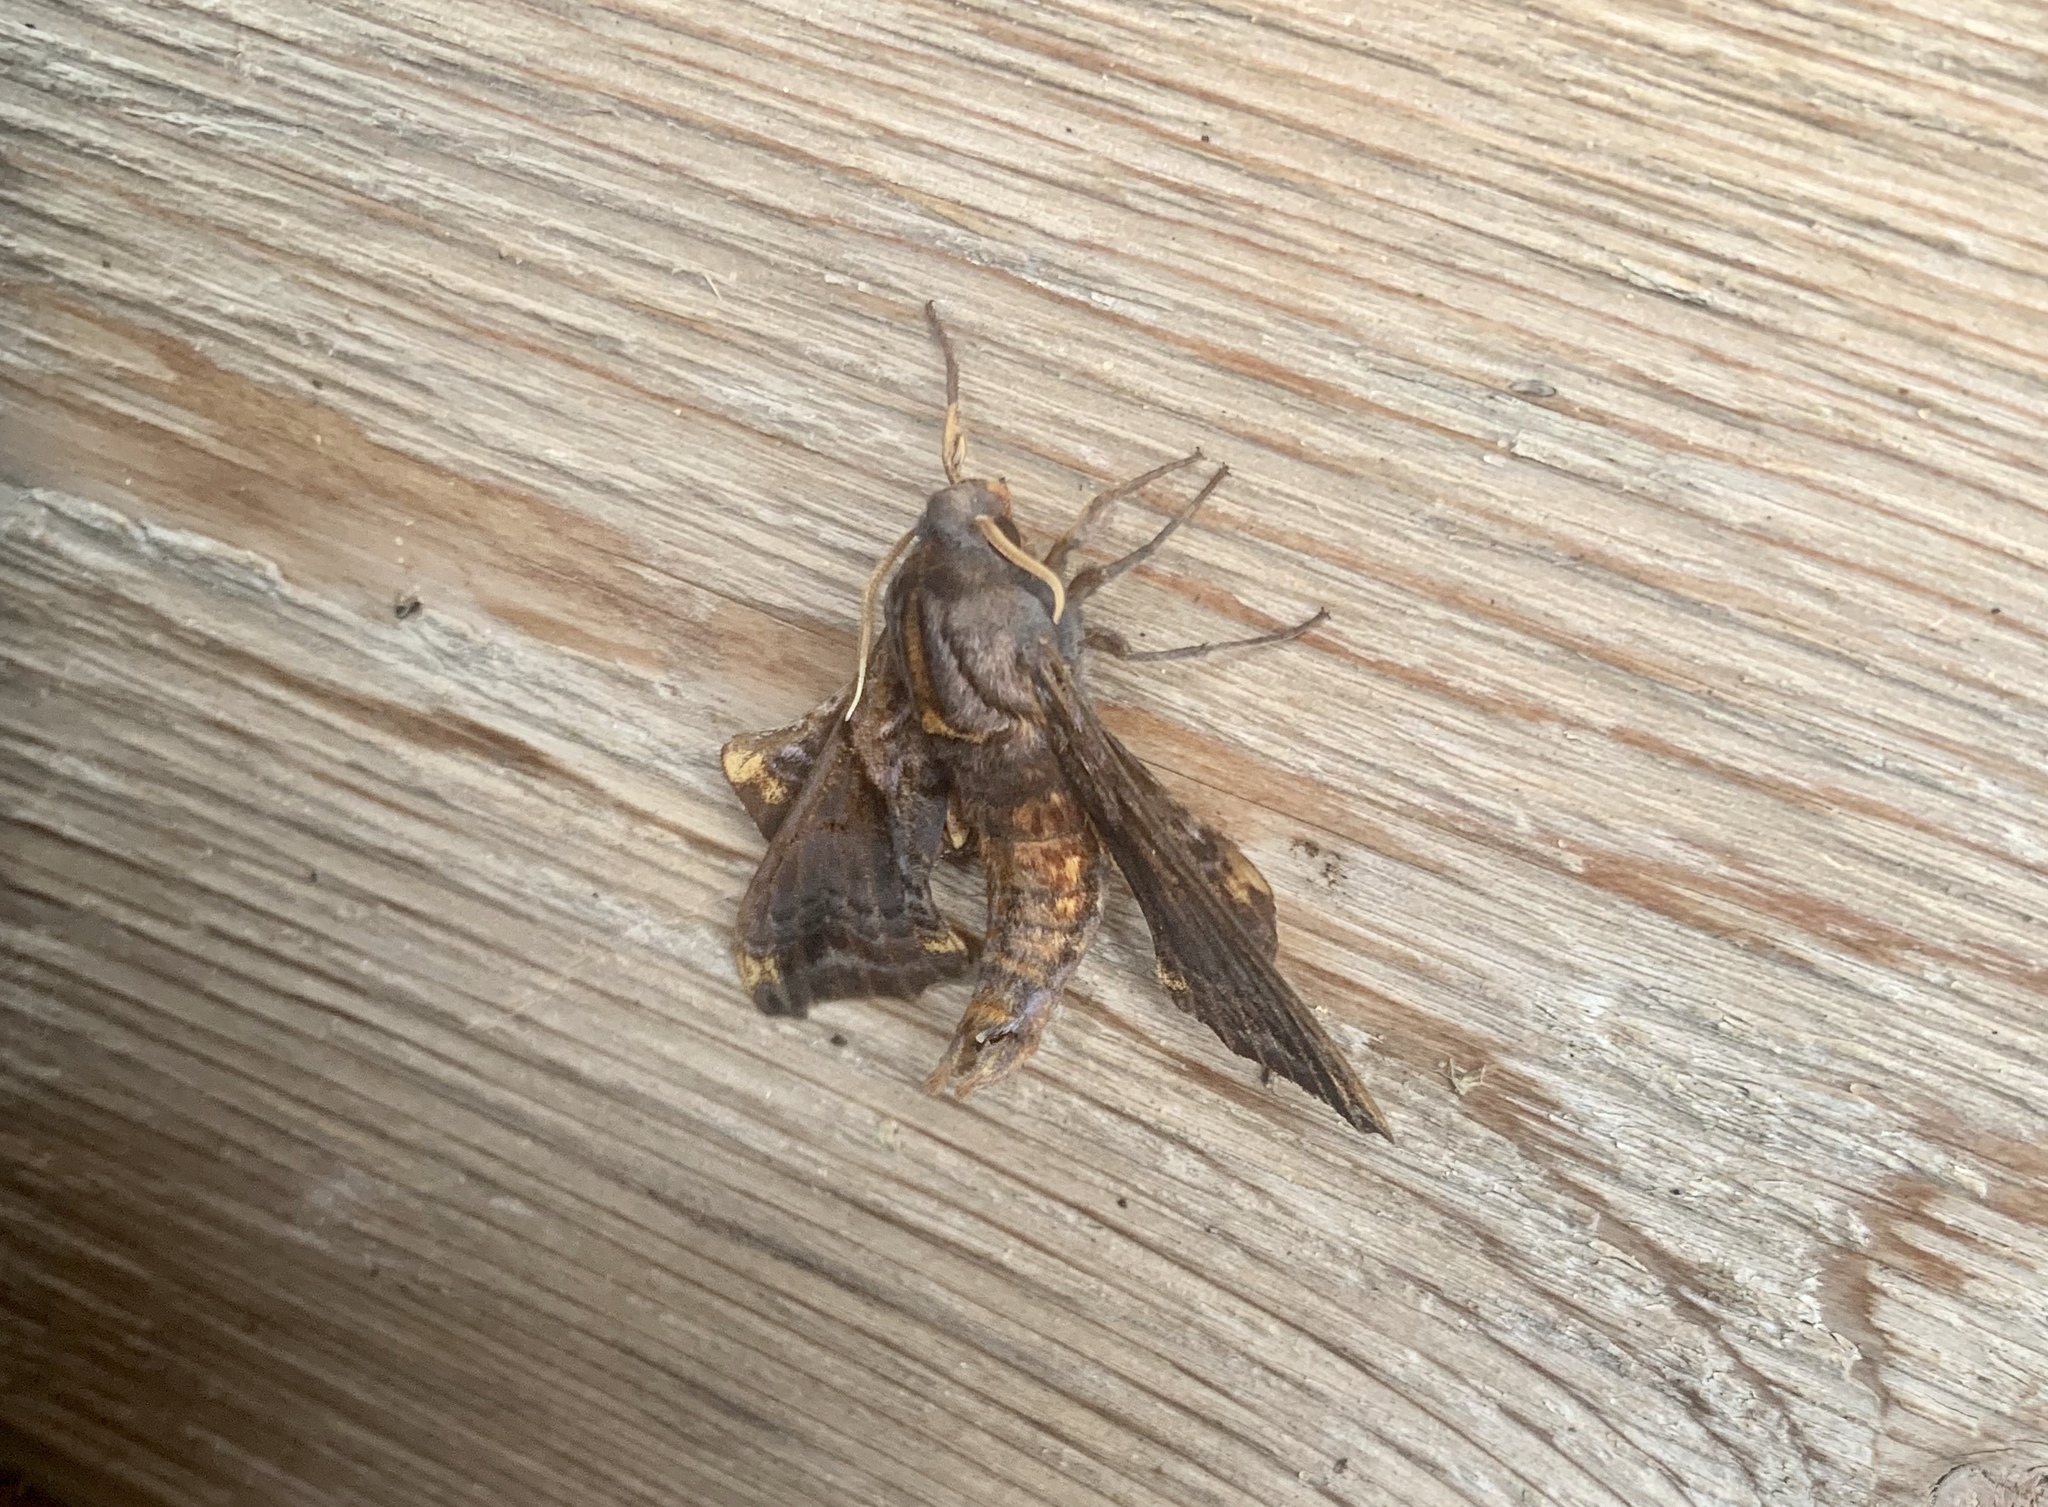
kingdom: Animalia
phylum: Arthropoda
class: Insecta
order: Lepidoptera
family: Sphingidae
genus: Paonias
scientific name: Paonias myops
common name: Small-eyed sphinx
